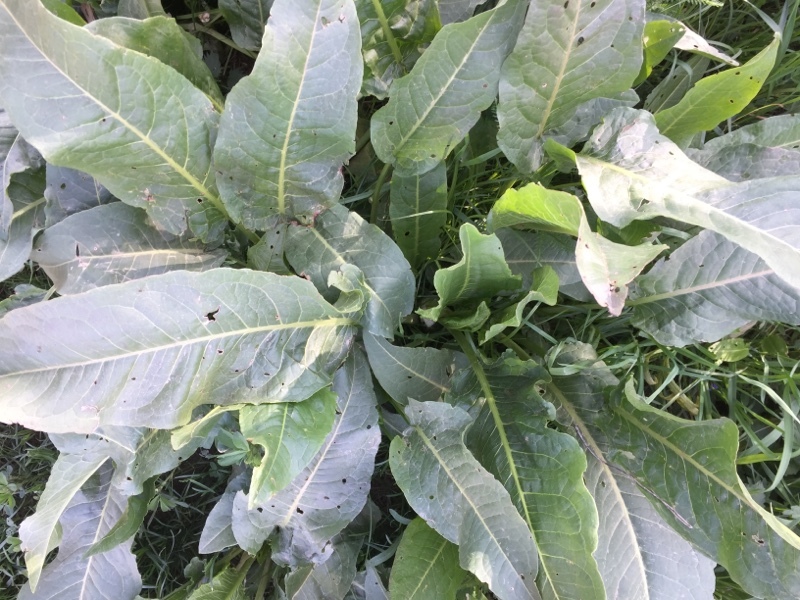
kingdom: Plantae
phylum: Tracheophyta
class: Magnoliopsida
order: Brassicales
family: Brassicaceae
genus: Armoracia
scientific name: Armoracia rusticana
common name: Horseradish
